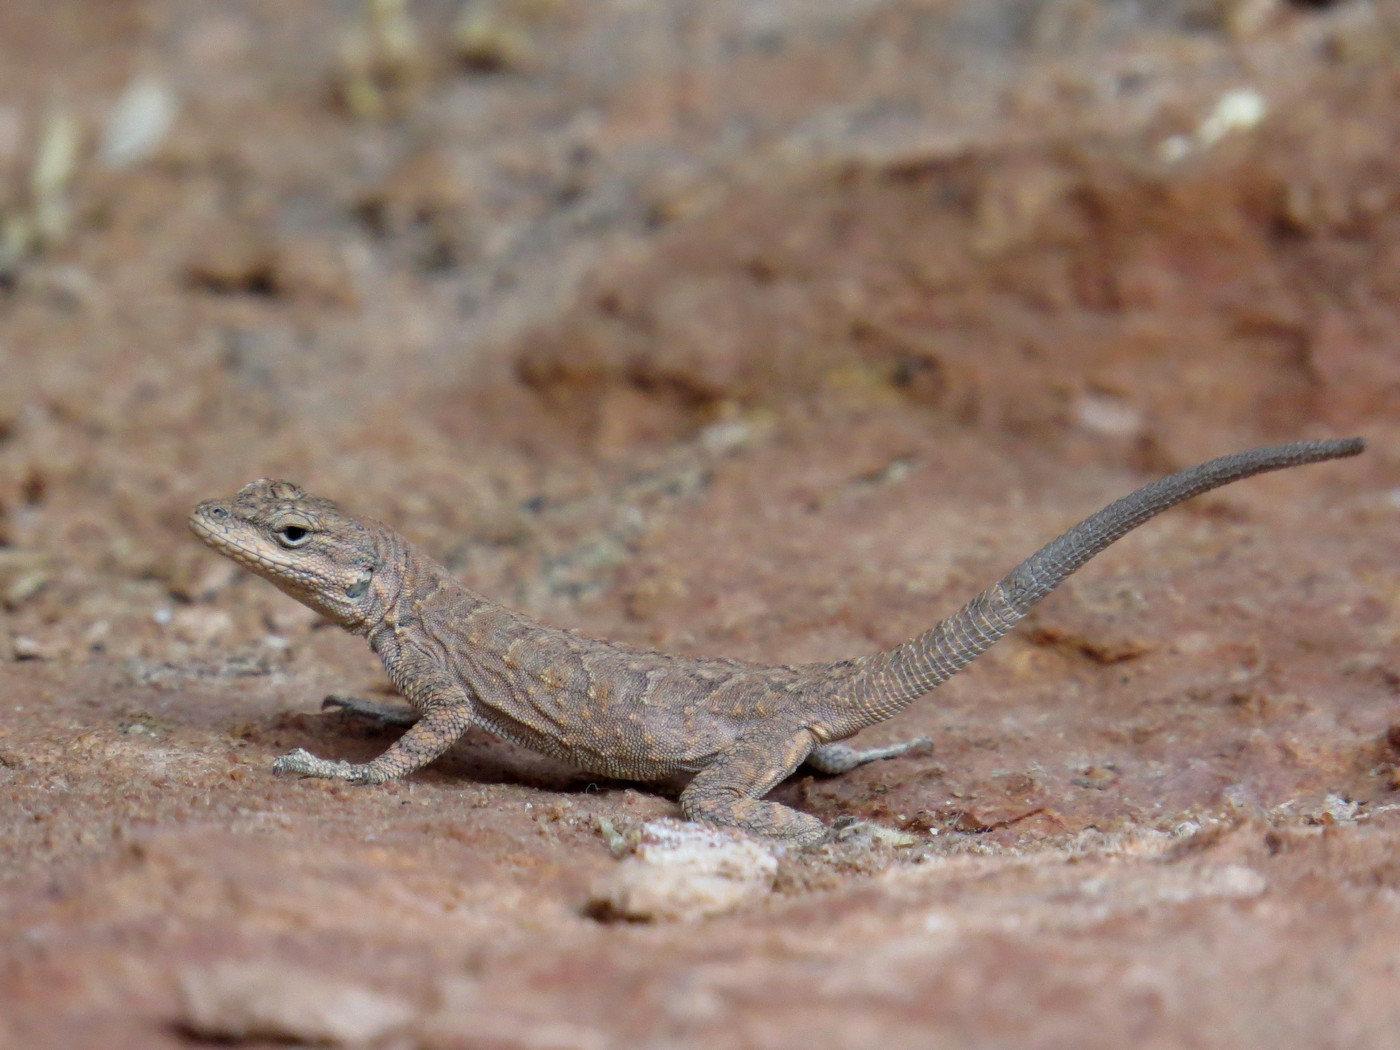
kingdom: Animalia
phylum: Chordata
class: Squamata
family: Phrynosomatidae
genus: Urosaurus
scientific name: Urosaurus ornatus
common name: Ornate tree lizard
